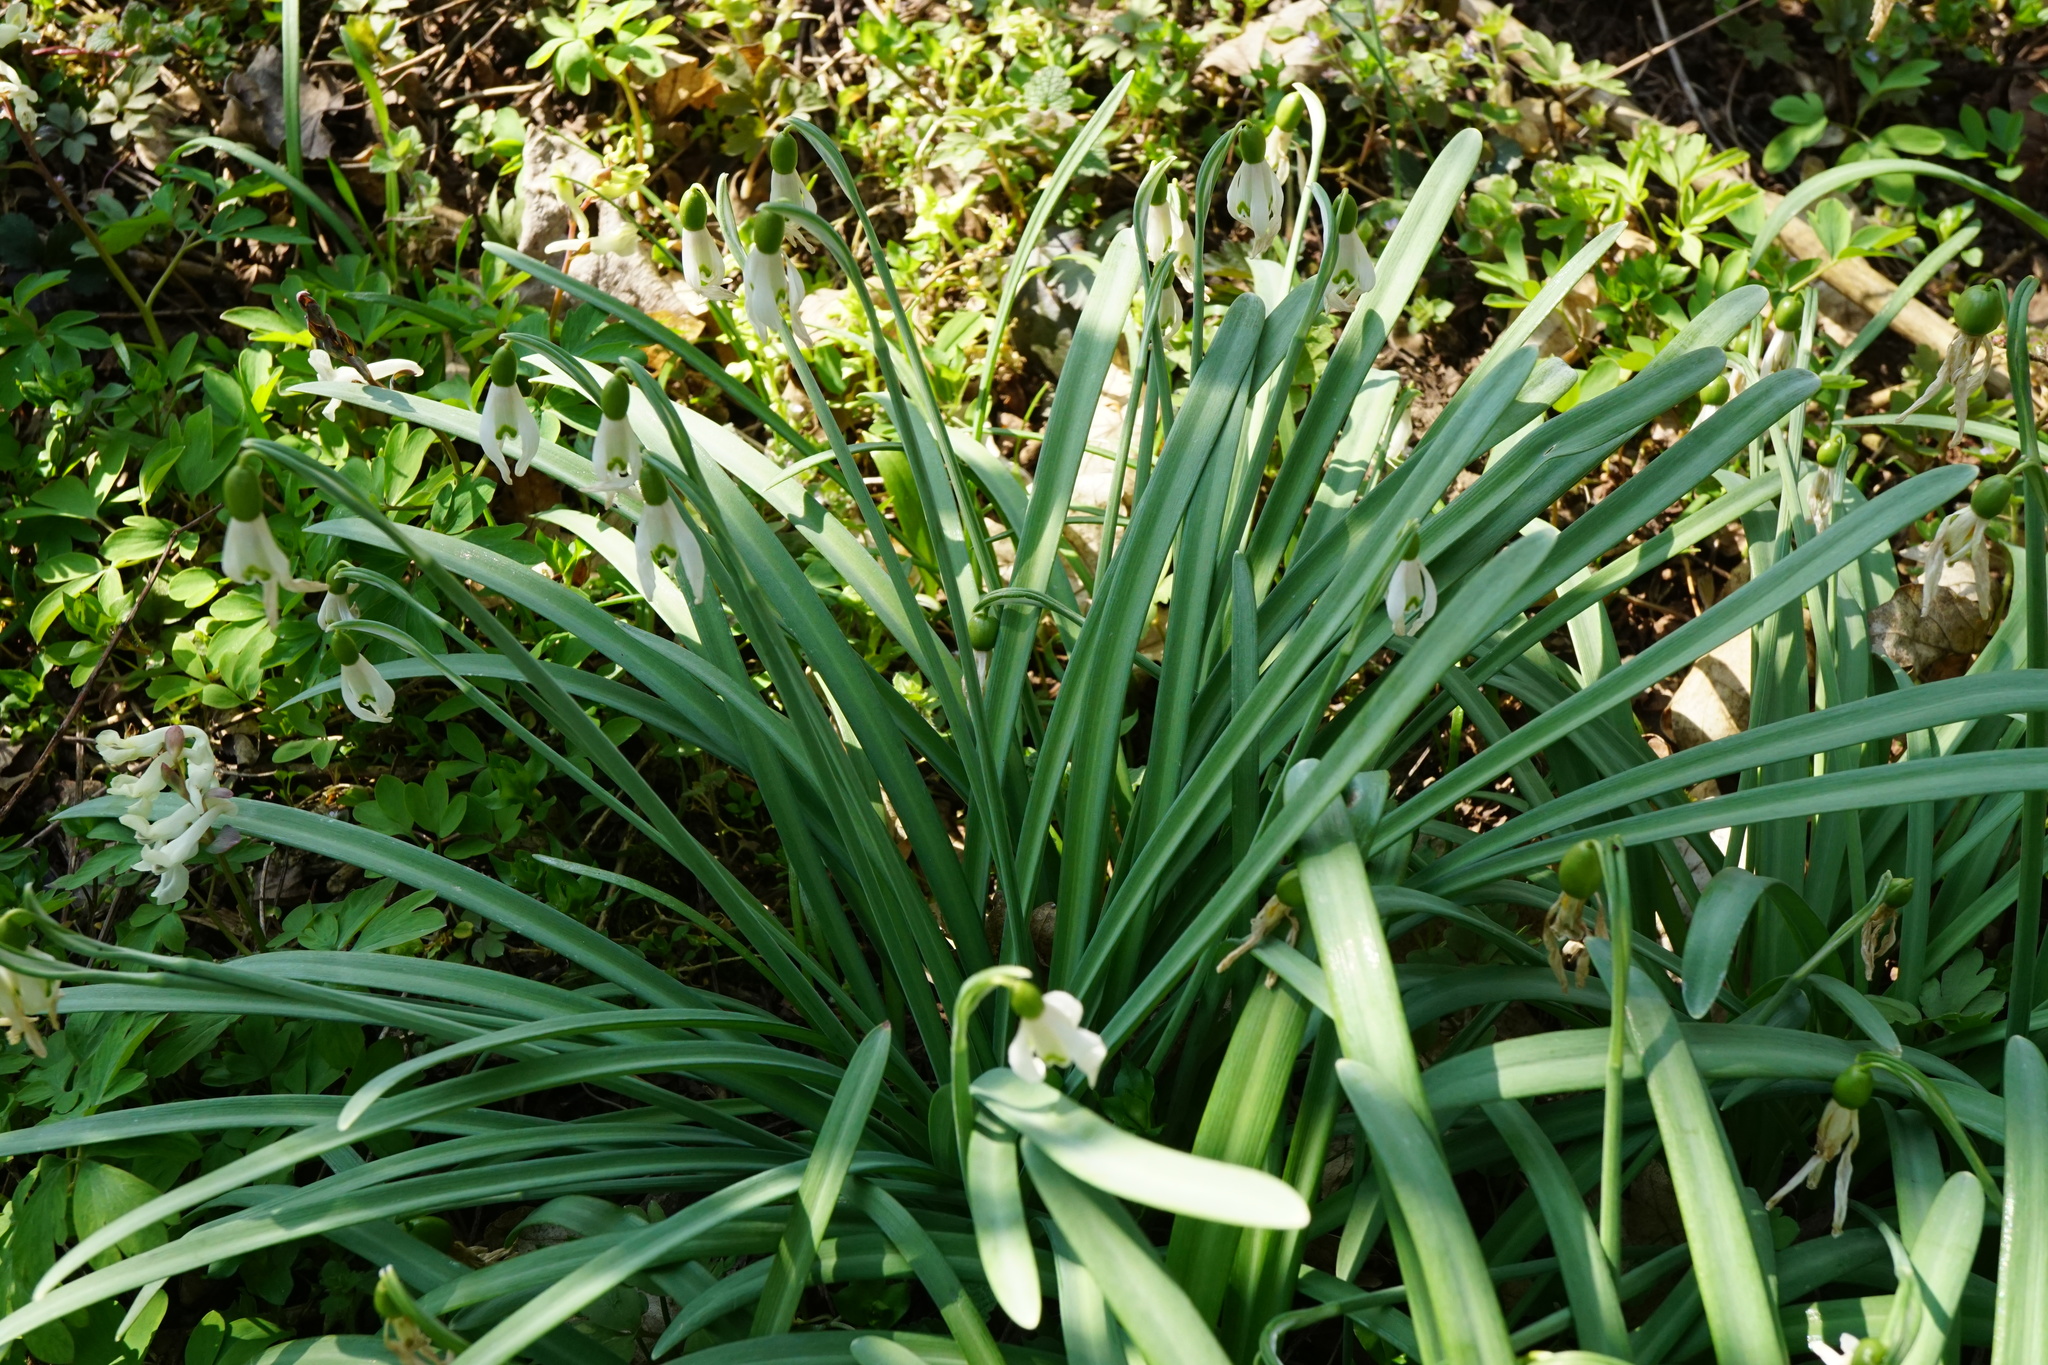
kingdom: Plantae
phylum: Tracheophyta
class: Liliopsida
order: Asparagales
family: Amaryllidaceae
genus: Galanthus
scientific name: Galanthus nivalis
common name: Snowdrop
